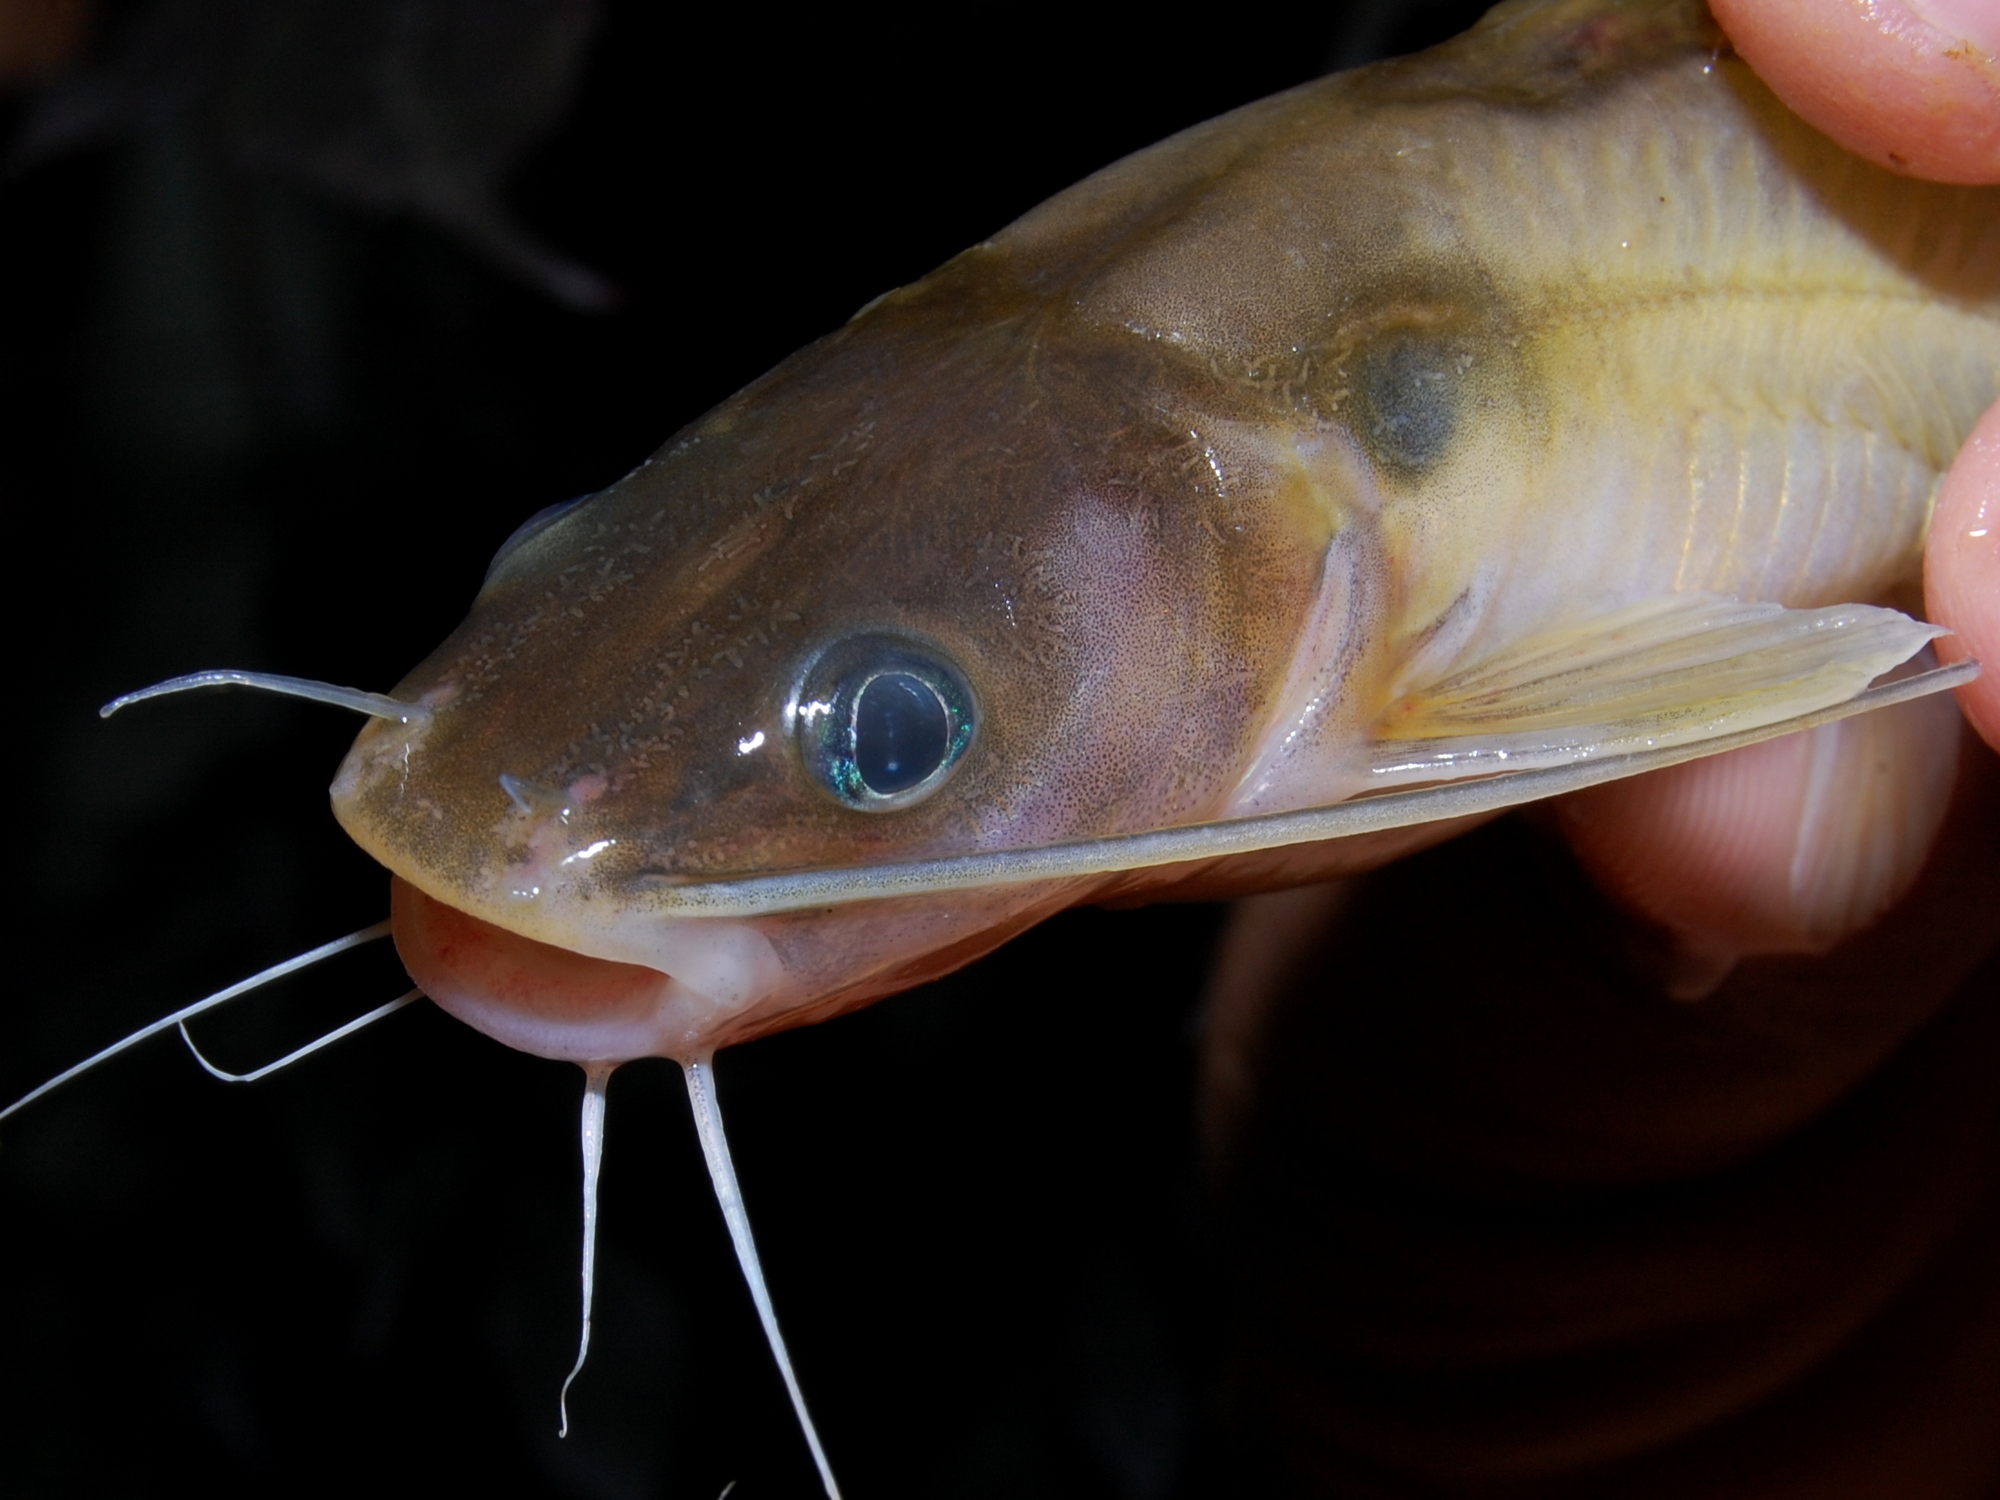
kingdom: Animalia
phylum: Chordata
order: Siluriformes
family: Bagridae
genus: Hemibagrus
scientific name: Hemibagrus planiceps
